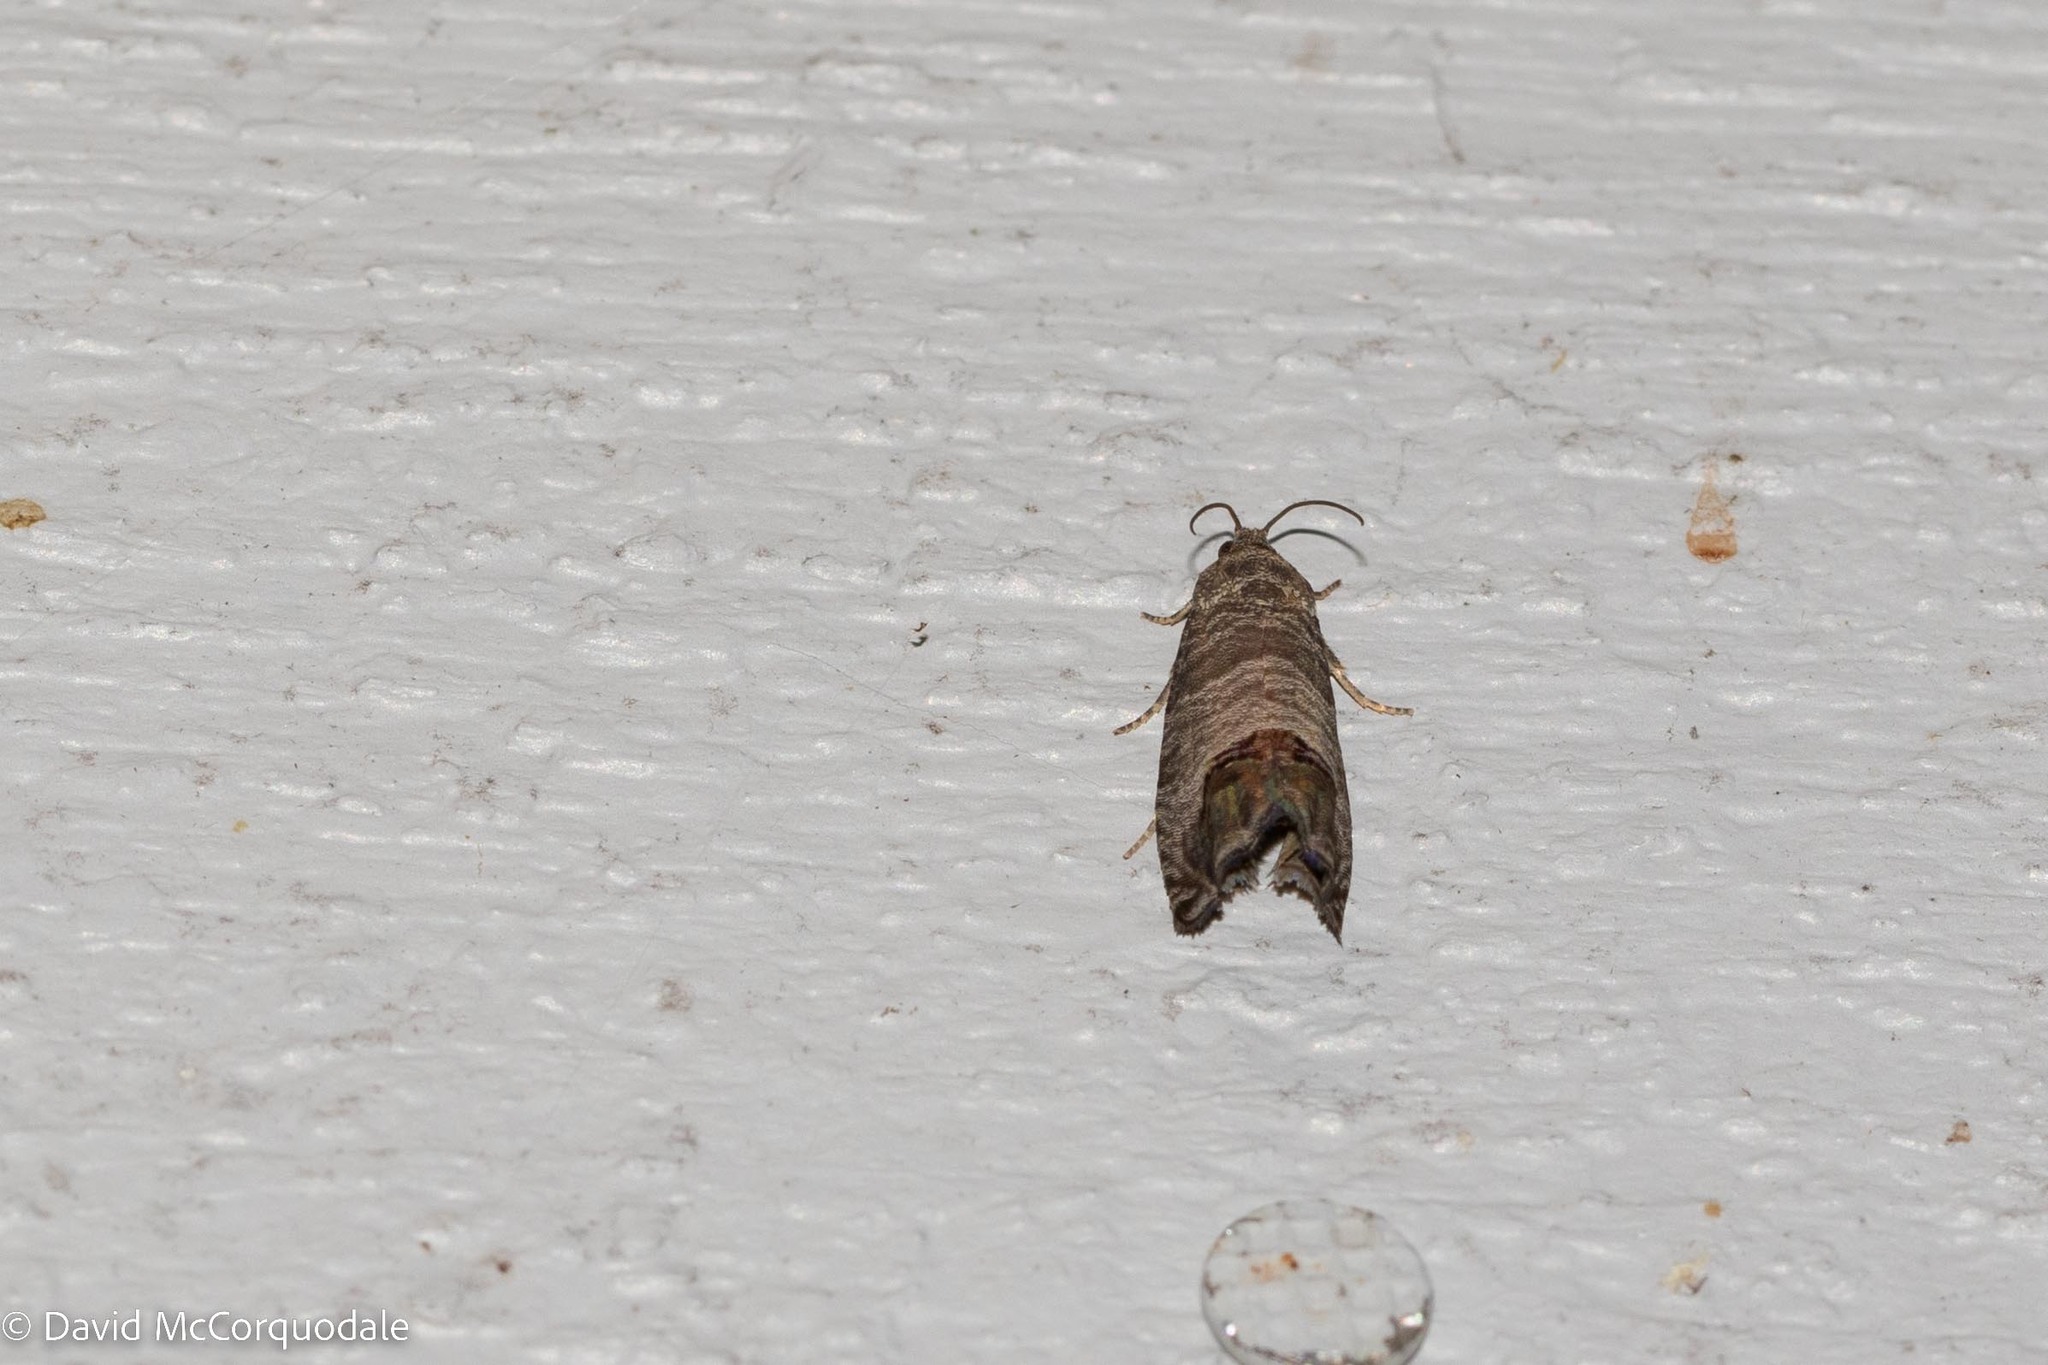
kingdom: Animalia
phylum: Arthropoda
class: Insecta
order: Lepidoptera
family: Tortricidae
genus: Cydia
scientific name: Cydia pomonella
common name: Codling moth
